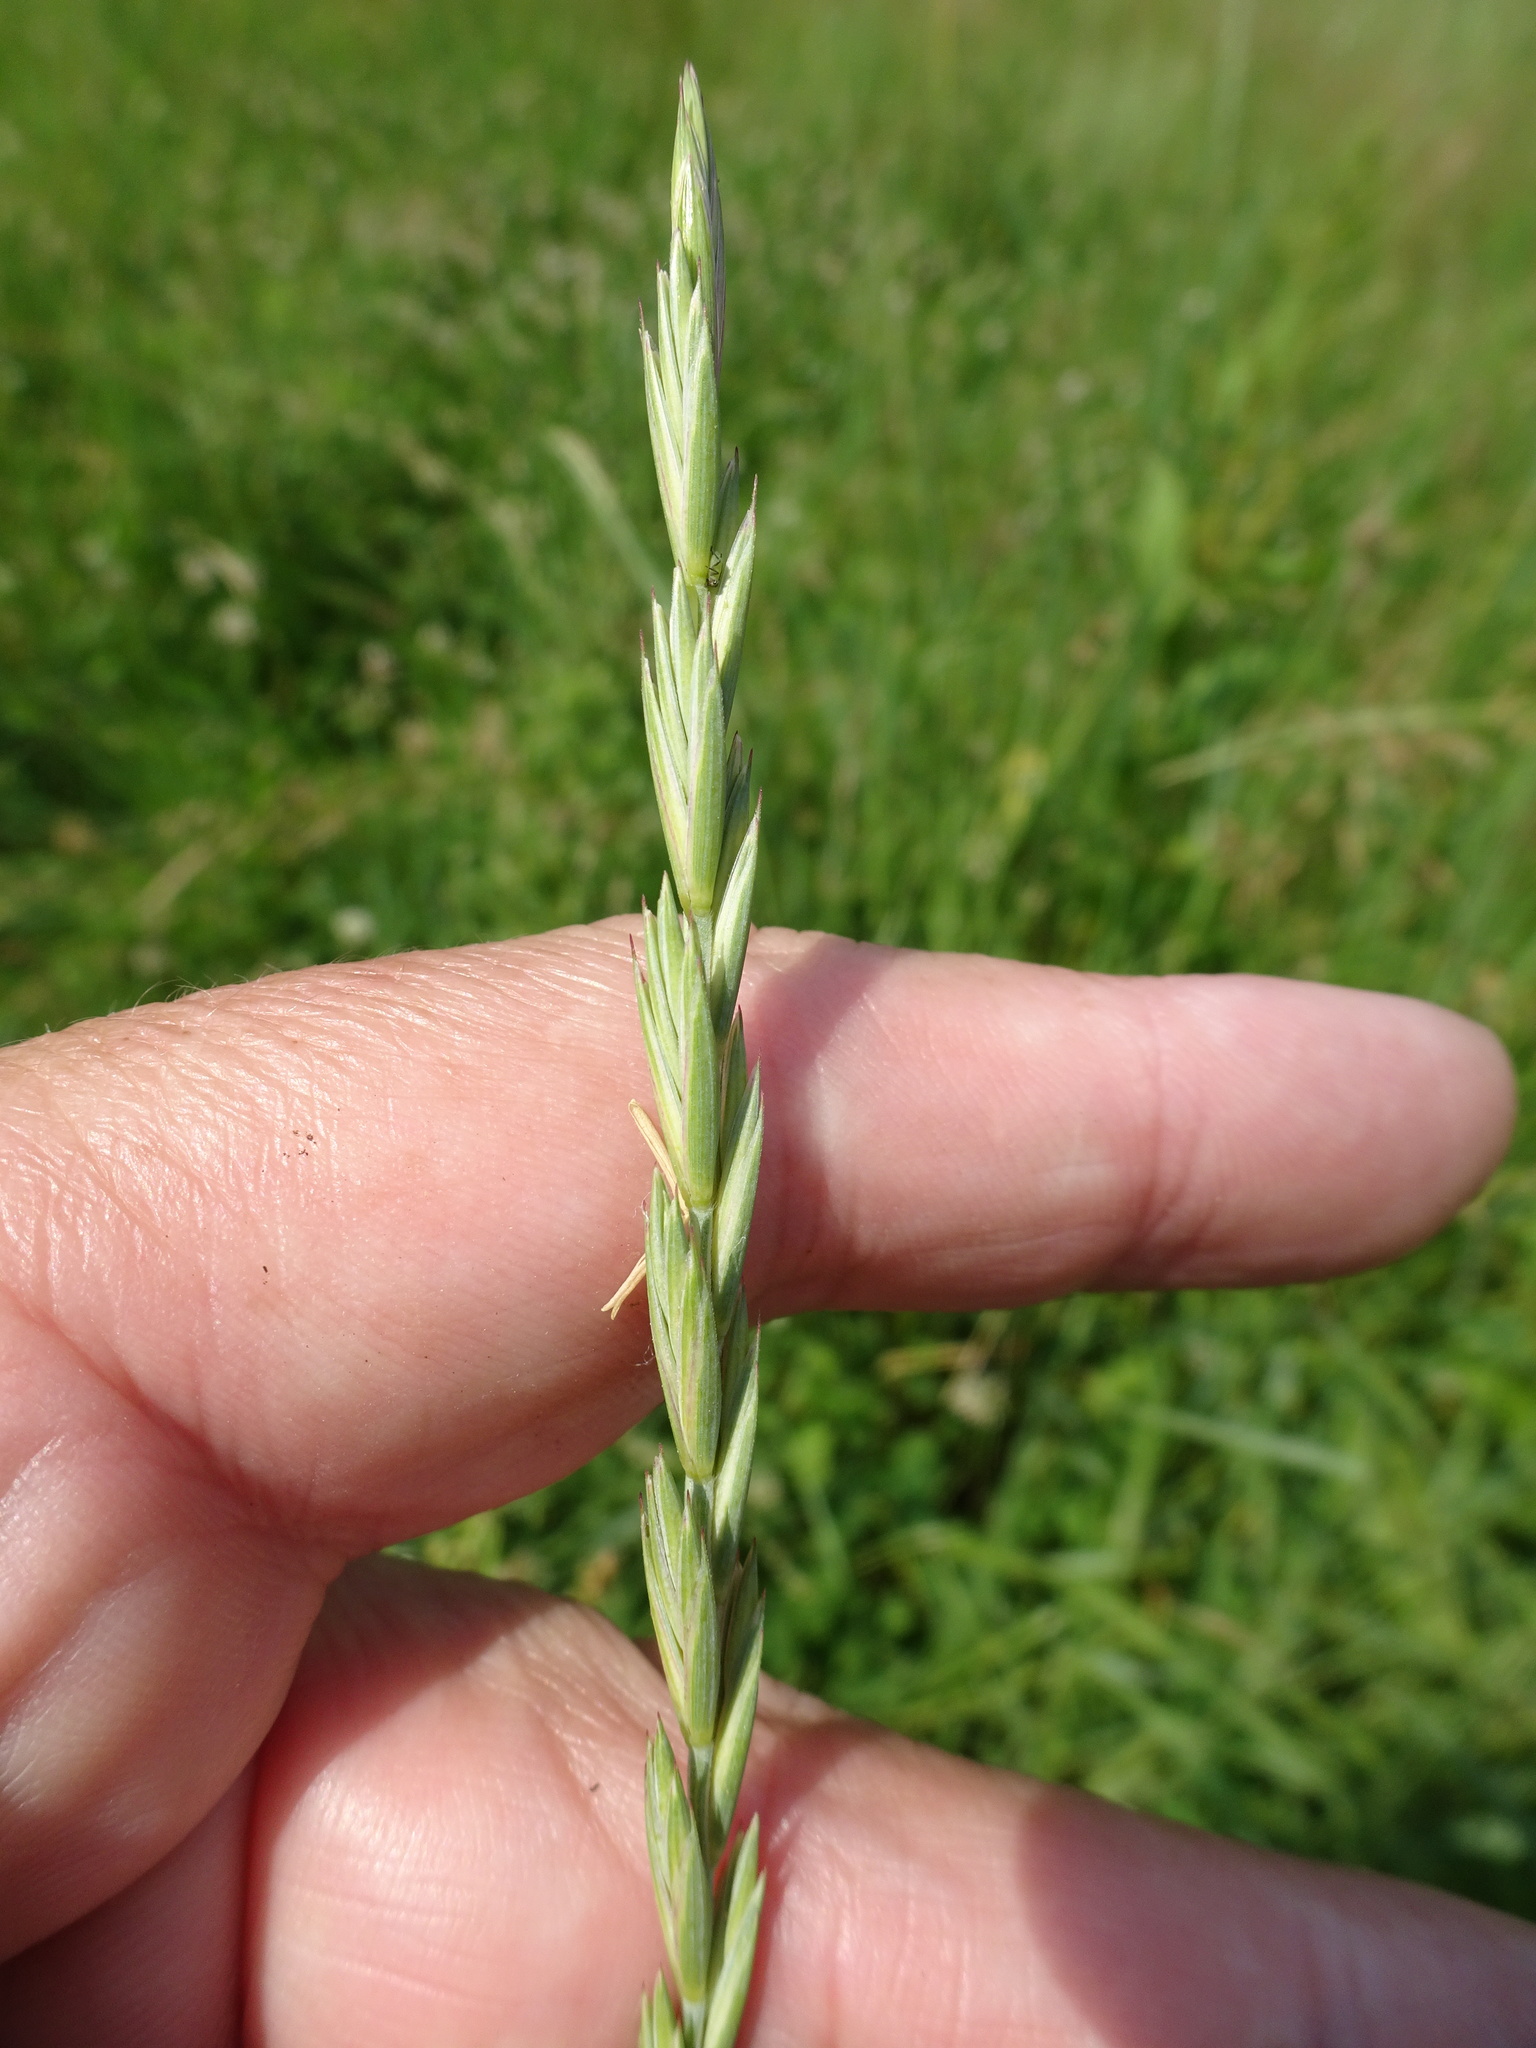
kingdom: Plantae
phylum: Tracheophyta
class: Liliopsida
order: Poales
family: Poaceae
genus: Elymus
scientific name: Elymus repens
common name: Quackgrass
